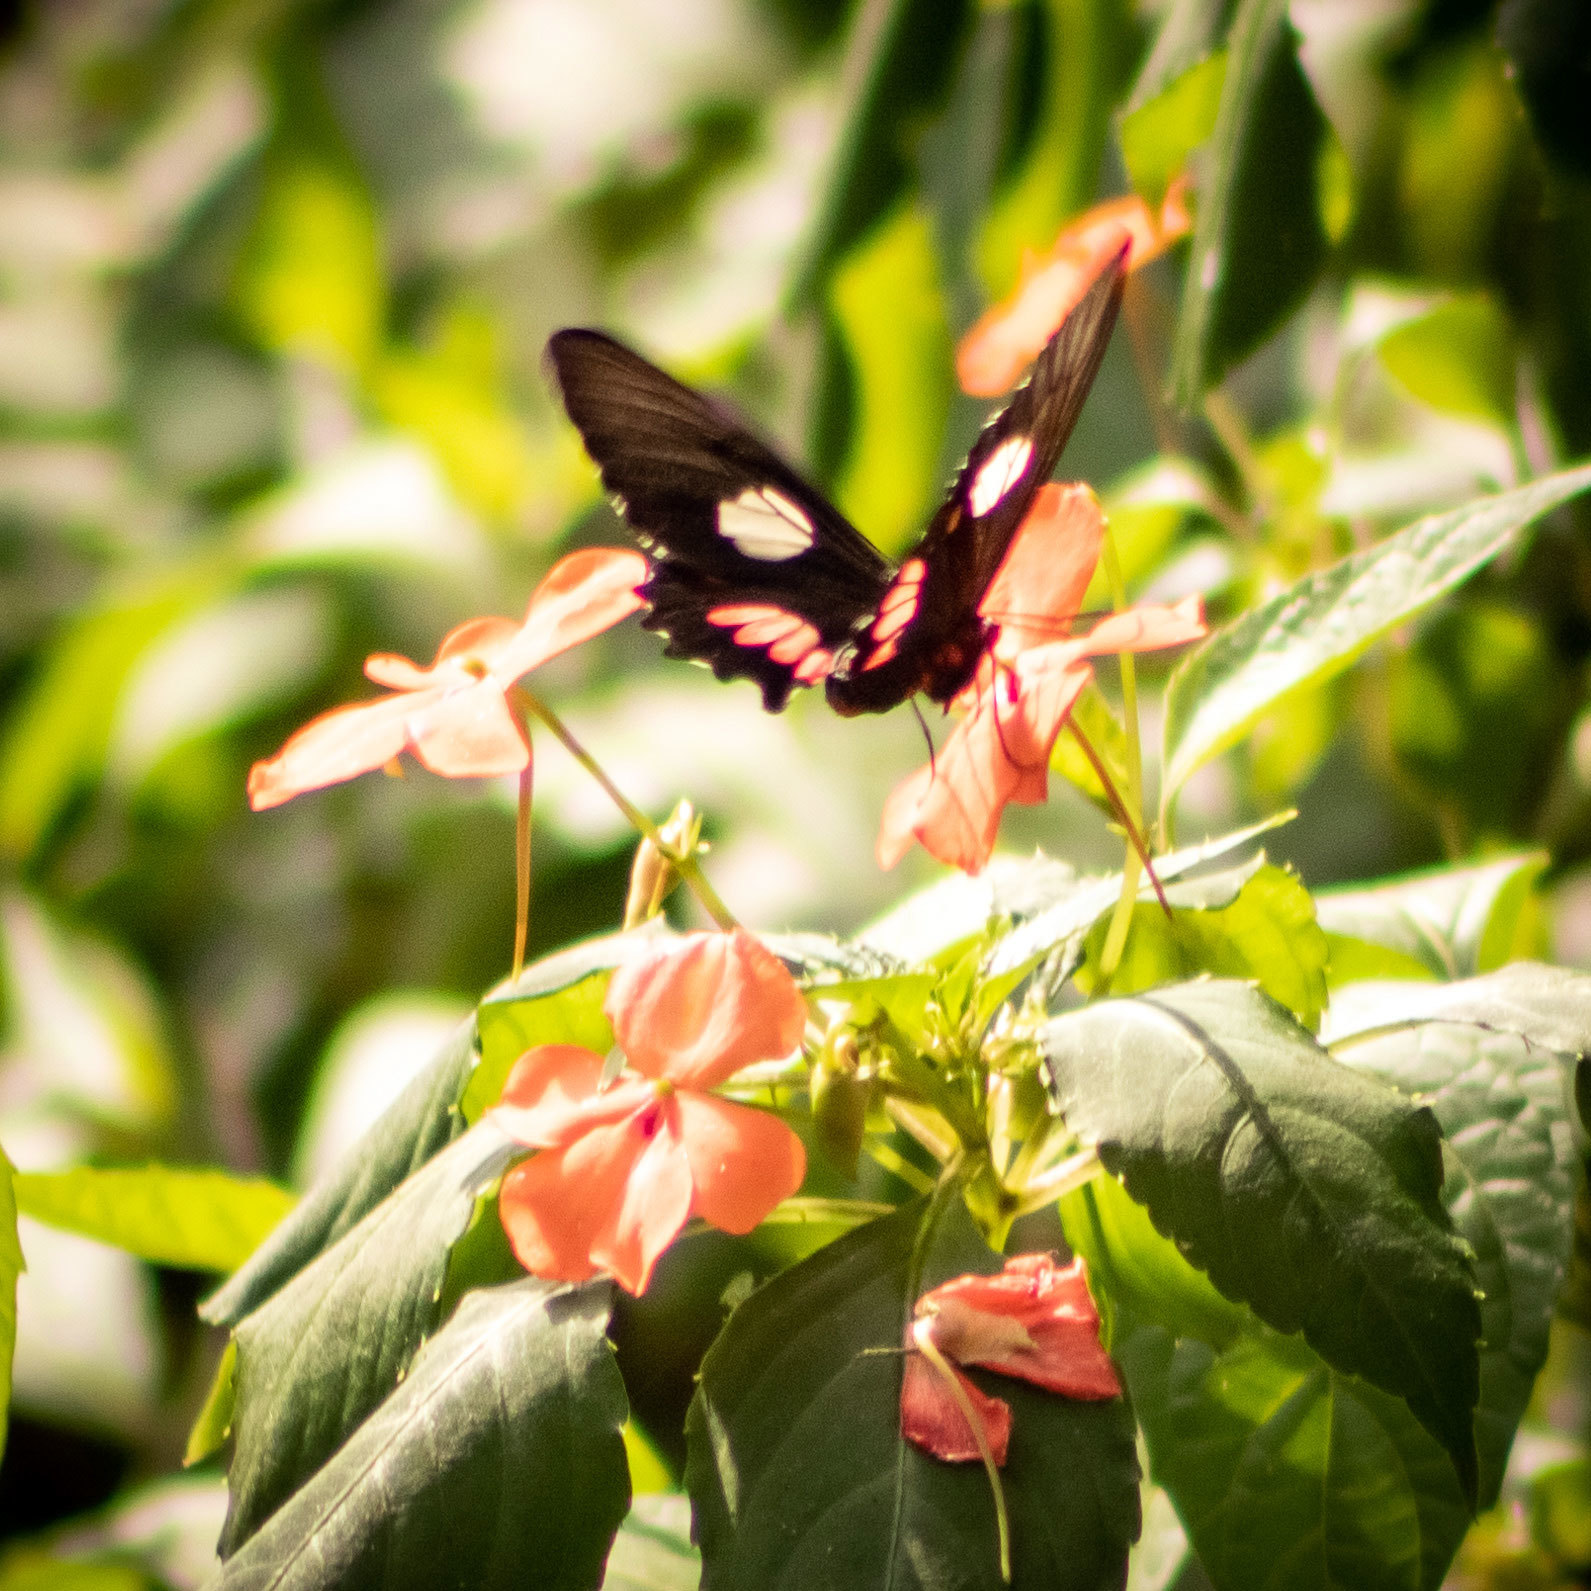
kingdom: Animalia
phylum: Arthropoda
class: Insecta
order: Lepidoptera
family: Papilionidae
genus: Parides
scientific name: Parides anchises
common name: Cattle heart
